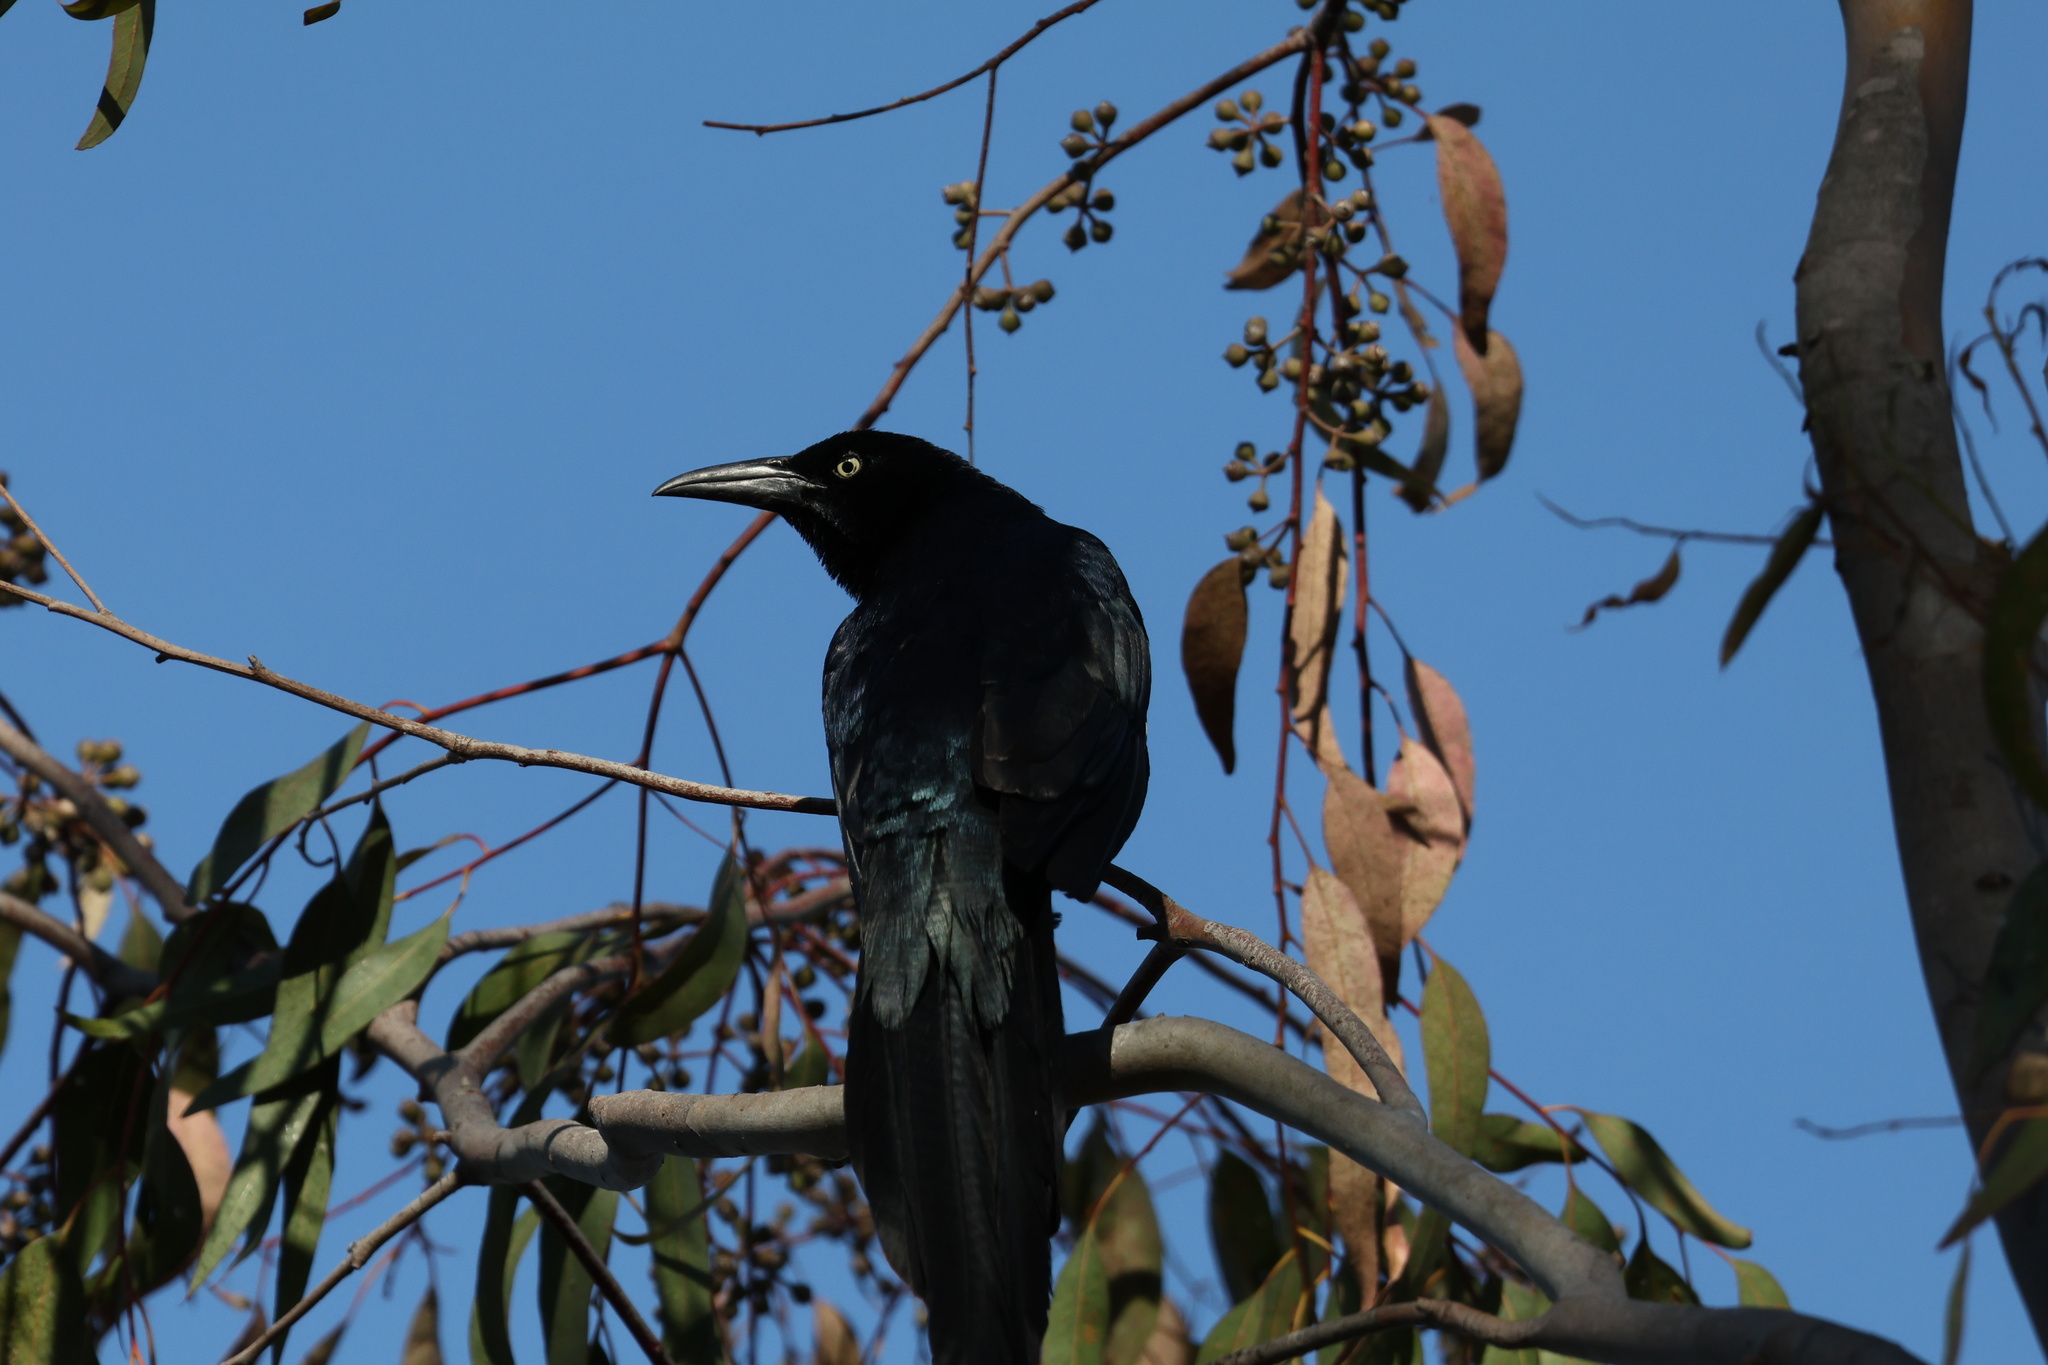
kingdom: Animalia
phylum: Chordata
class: Aves
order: Passeriformes
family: Icteridae
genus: Quiscalus
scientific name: Quiscalus mexicanus
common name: Great-tailed grackle
